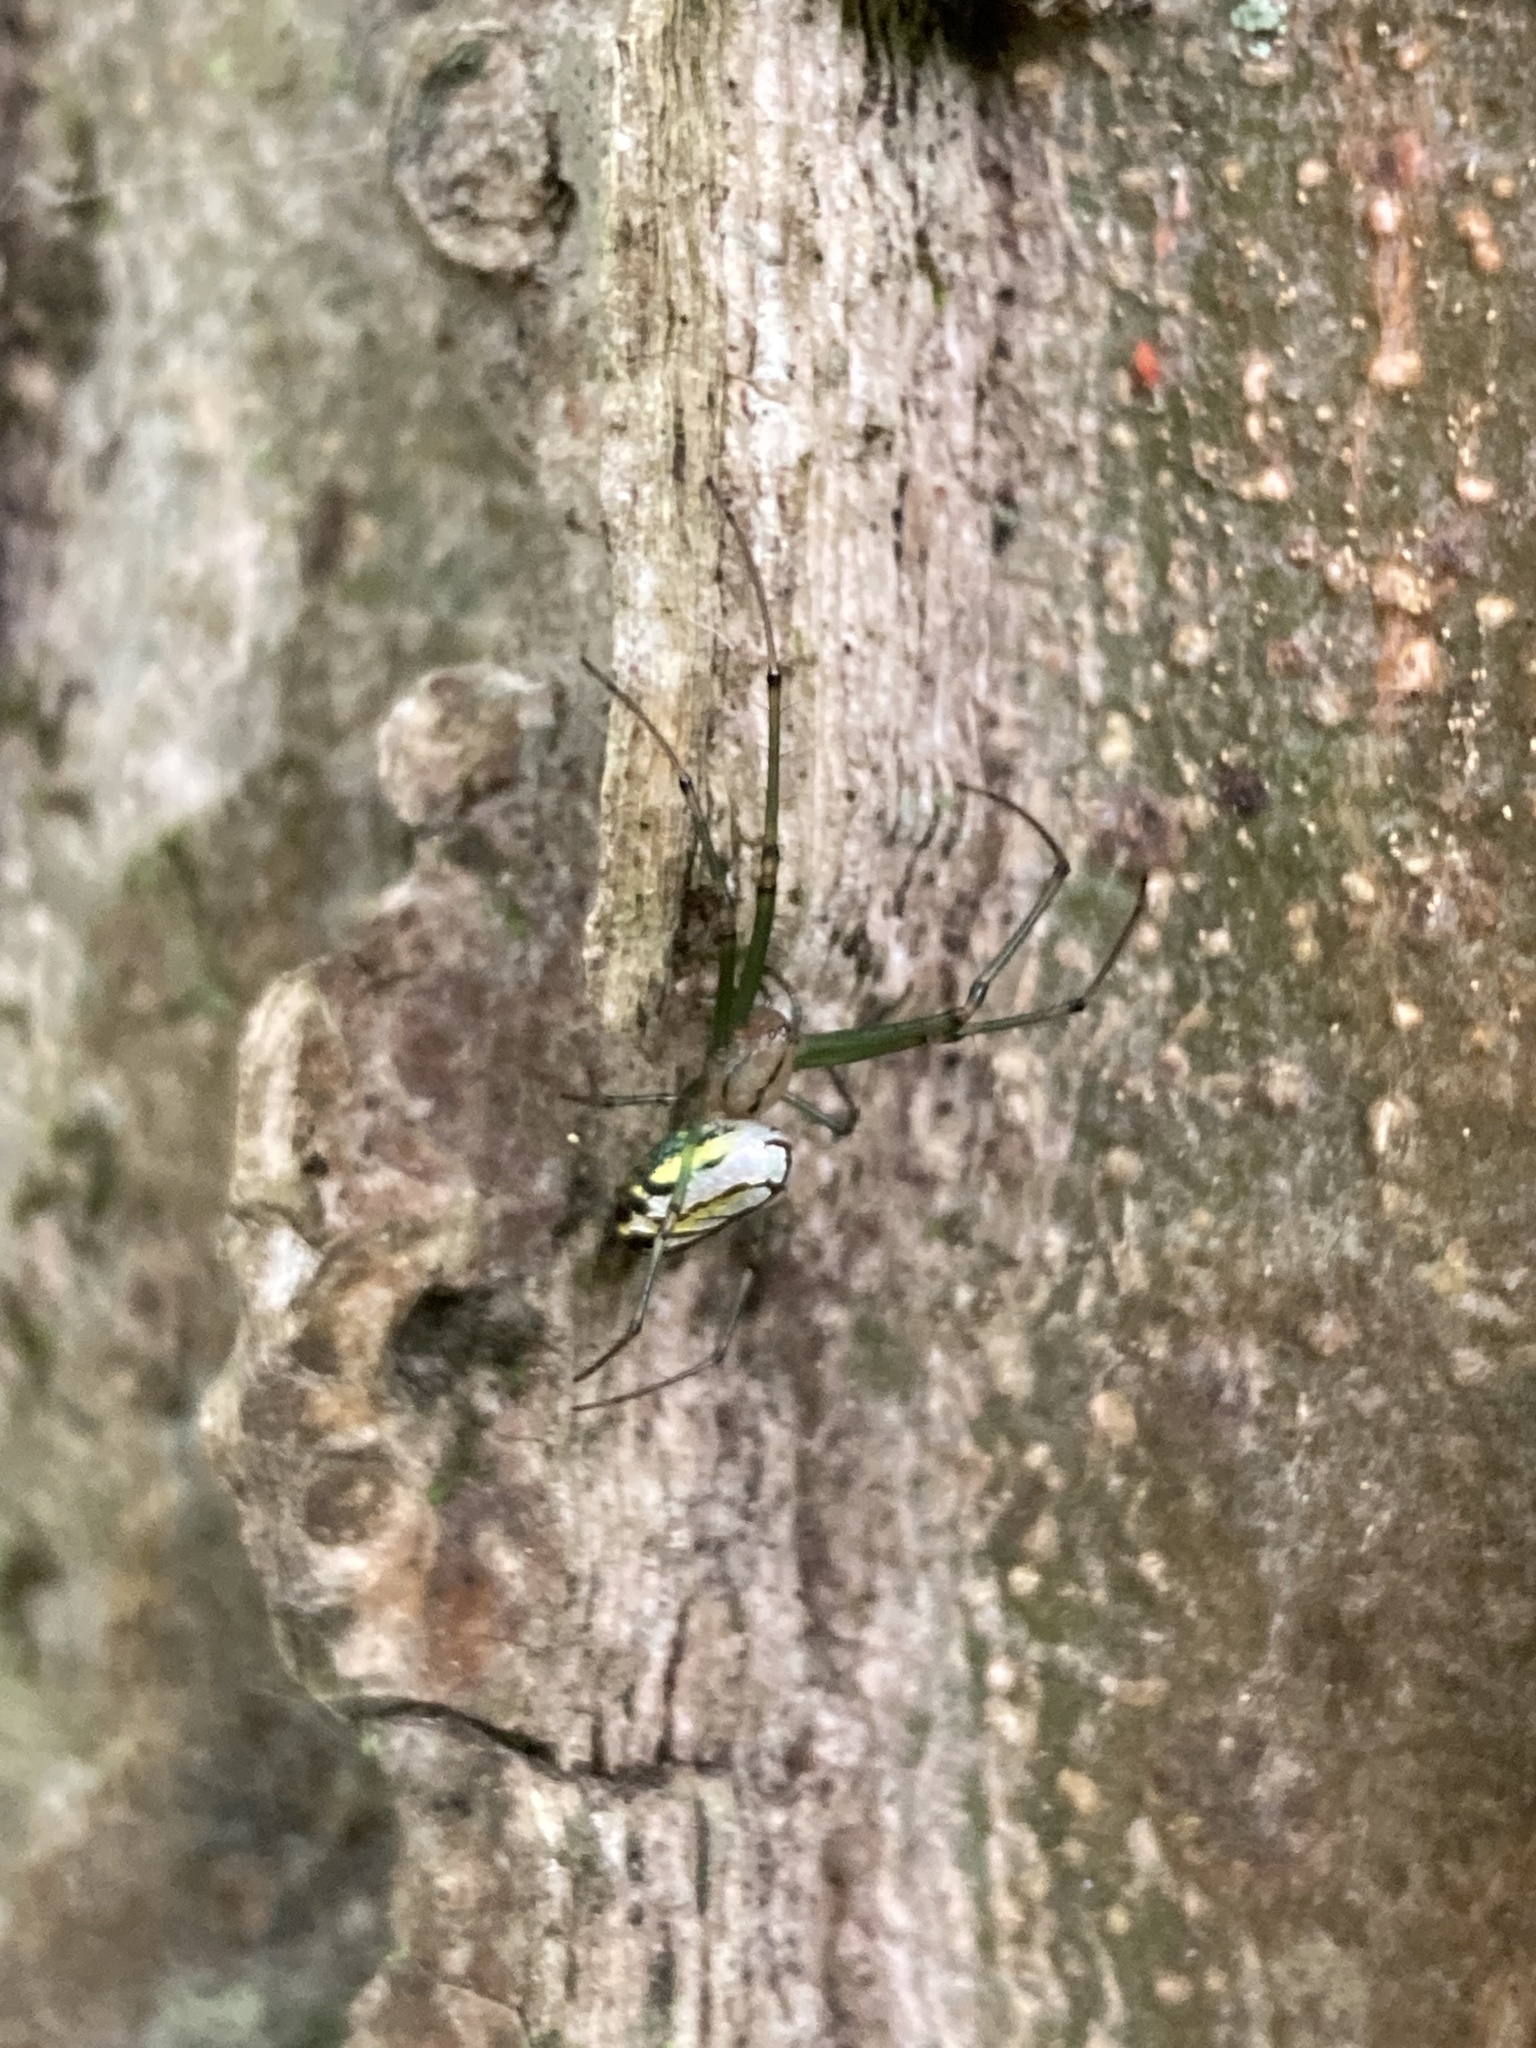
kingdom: Animalia
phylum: Arthropoda
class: Arachnida
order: Araneae
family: Tetragnathidae
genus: Leucauge
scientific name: Leucauge venusta
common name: Longjawed orb weavers
